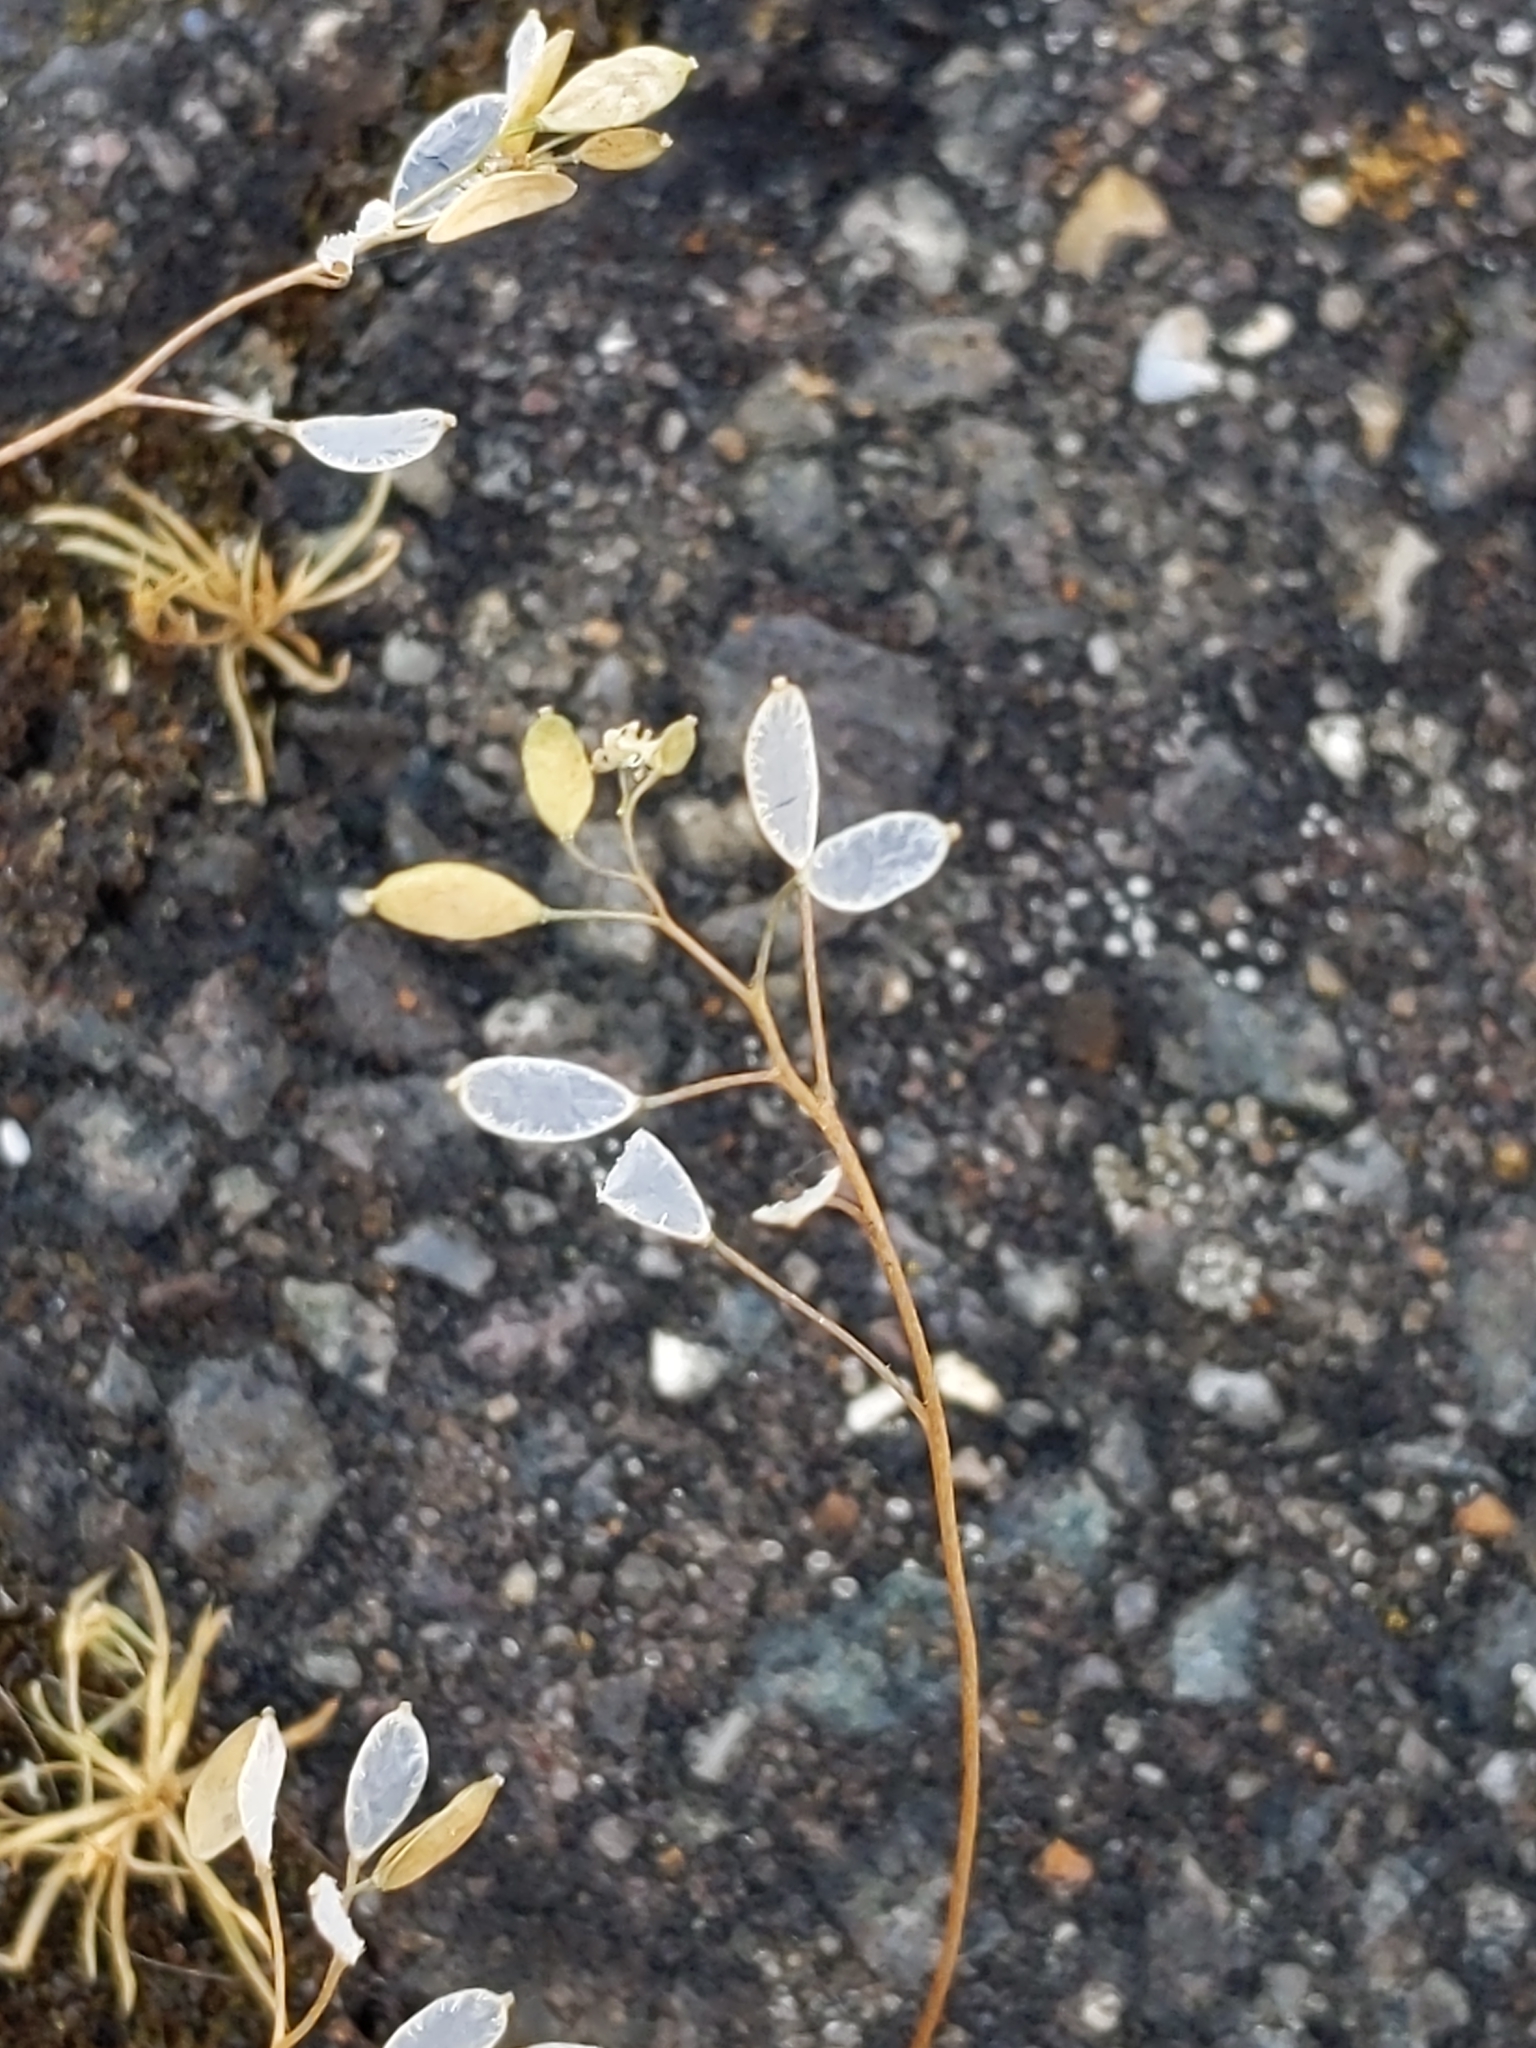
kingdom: Plantae
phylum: Tracheophyta
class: Magnoliopsida
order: Brassicales
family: Brassicaceae
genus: Draba
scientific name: Draba verna
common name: Spring draba
